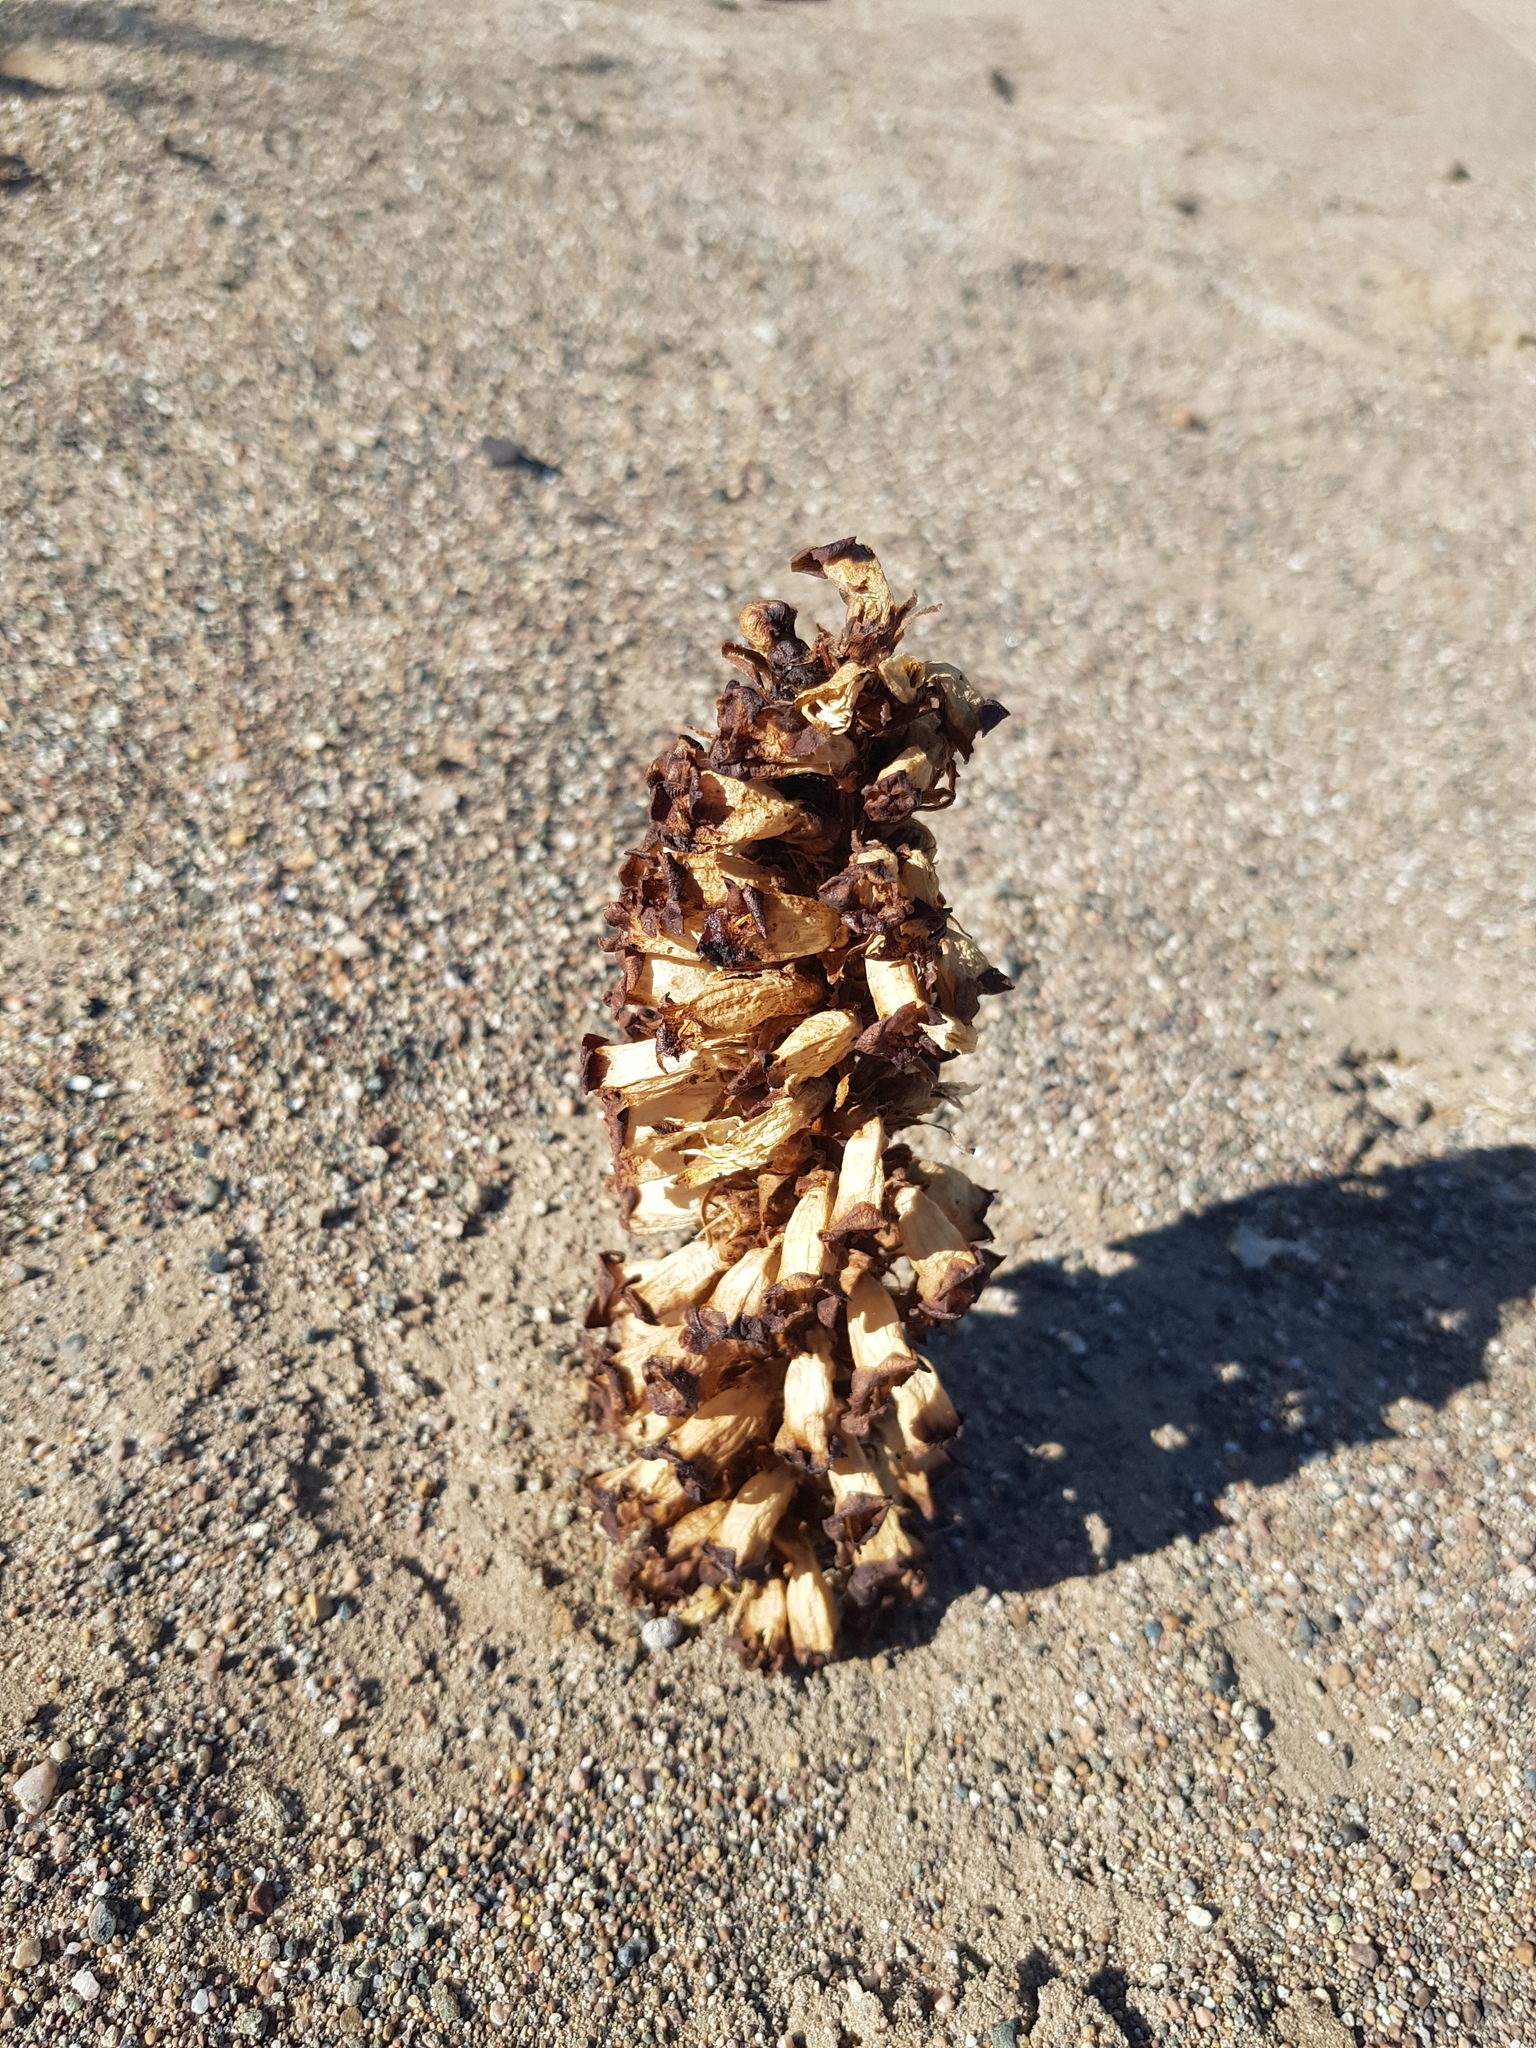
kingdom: Plantae
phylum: Tracheophyta
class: Magnoliopsida
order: Lamiales
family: Orobanchaceae
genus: Cistanche
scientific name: Cistanche deserticola
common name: Desert-broomrape
